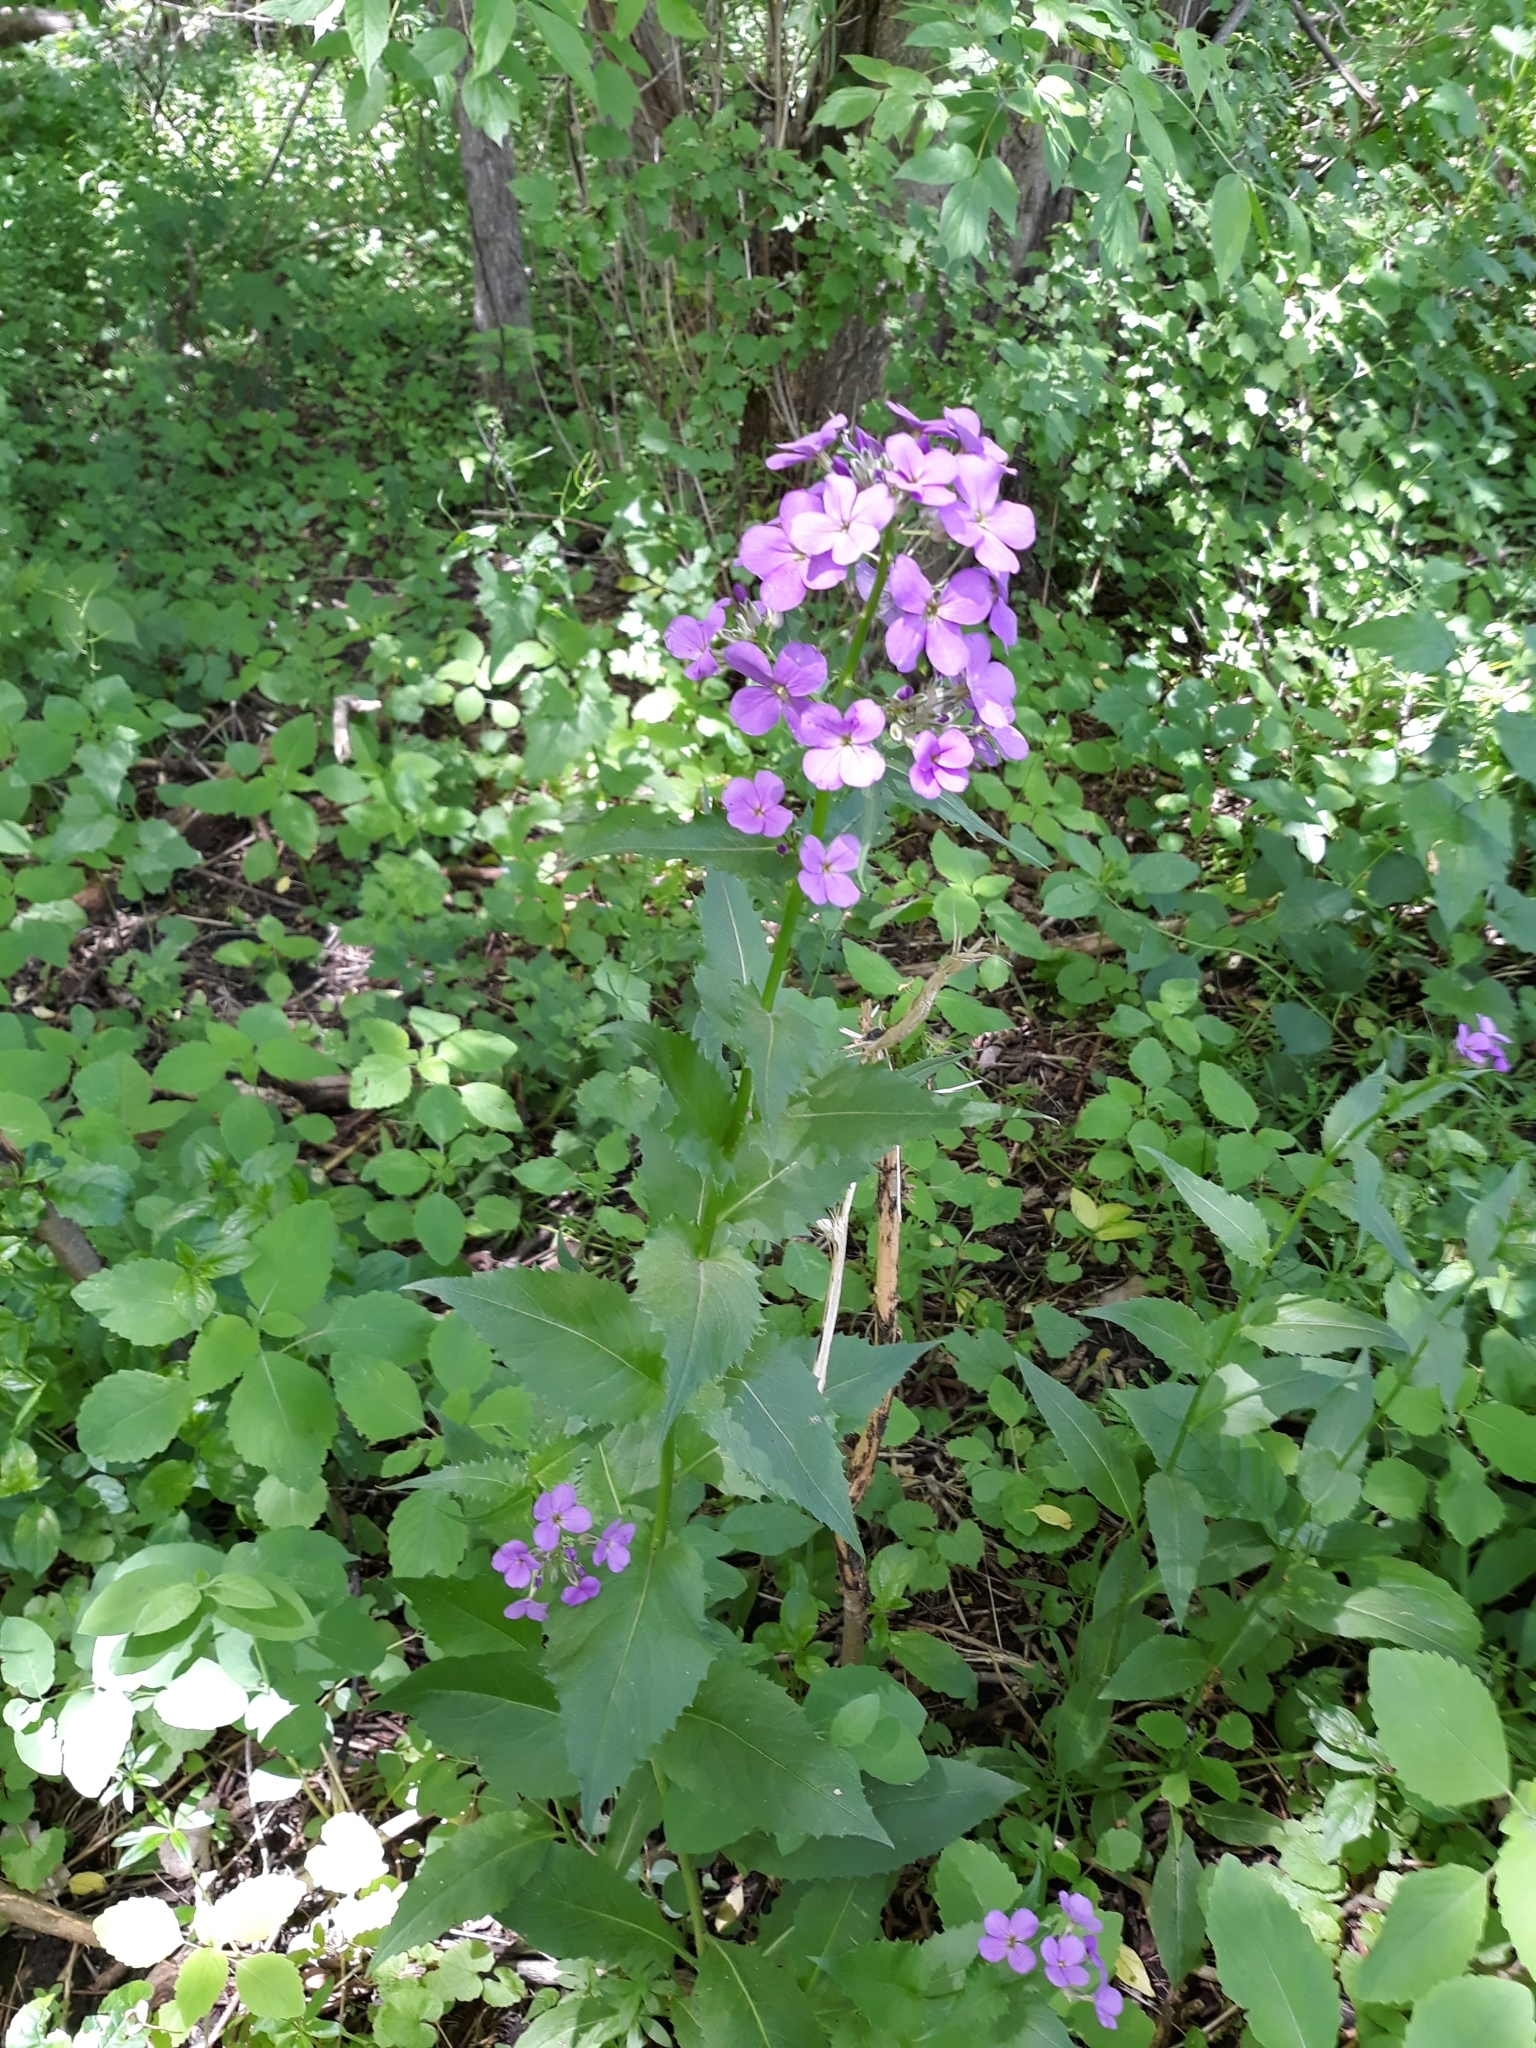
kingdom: Plantae
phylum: Tracheophyta
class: Magnoliopsida
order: Brassicales
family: Brassicaceae
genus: Hesperis
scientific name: Hesperis matronalis
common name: Dame's-violet
